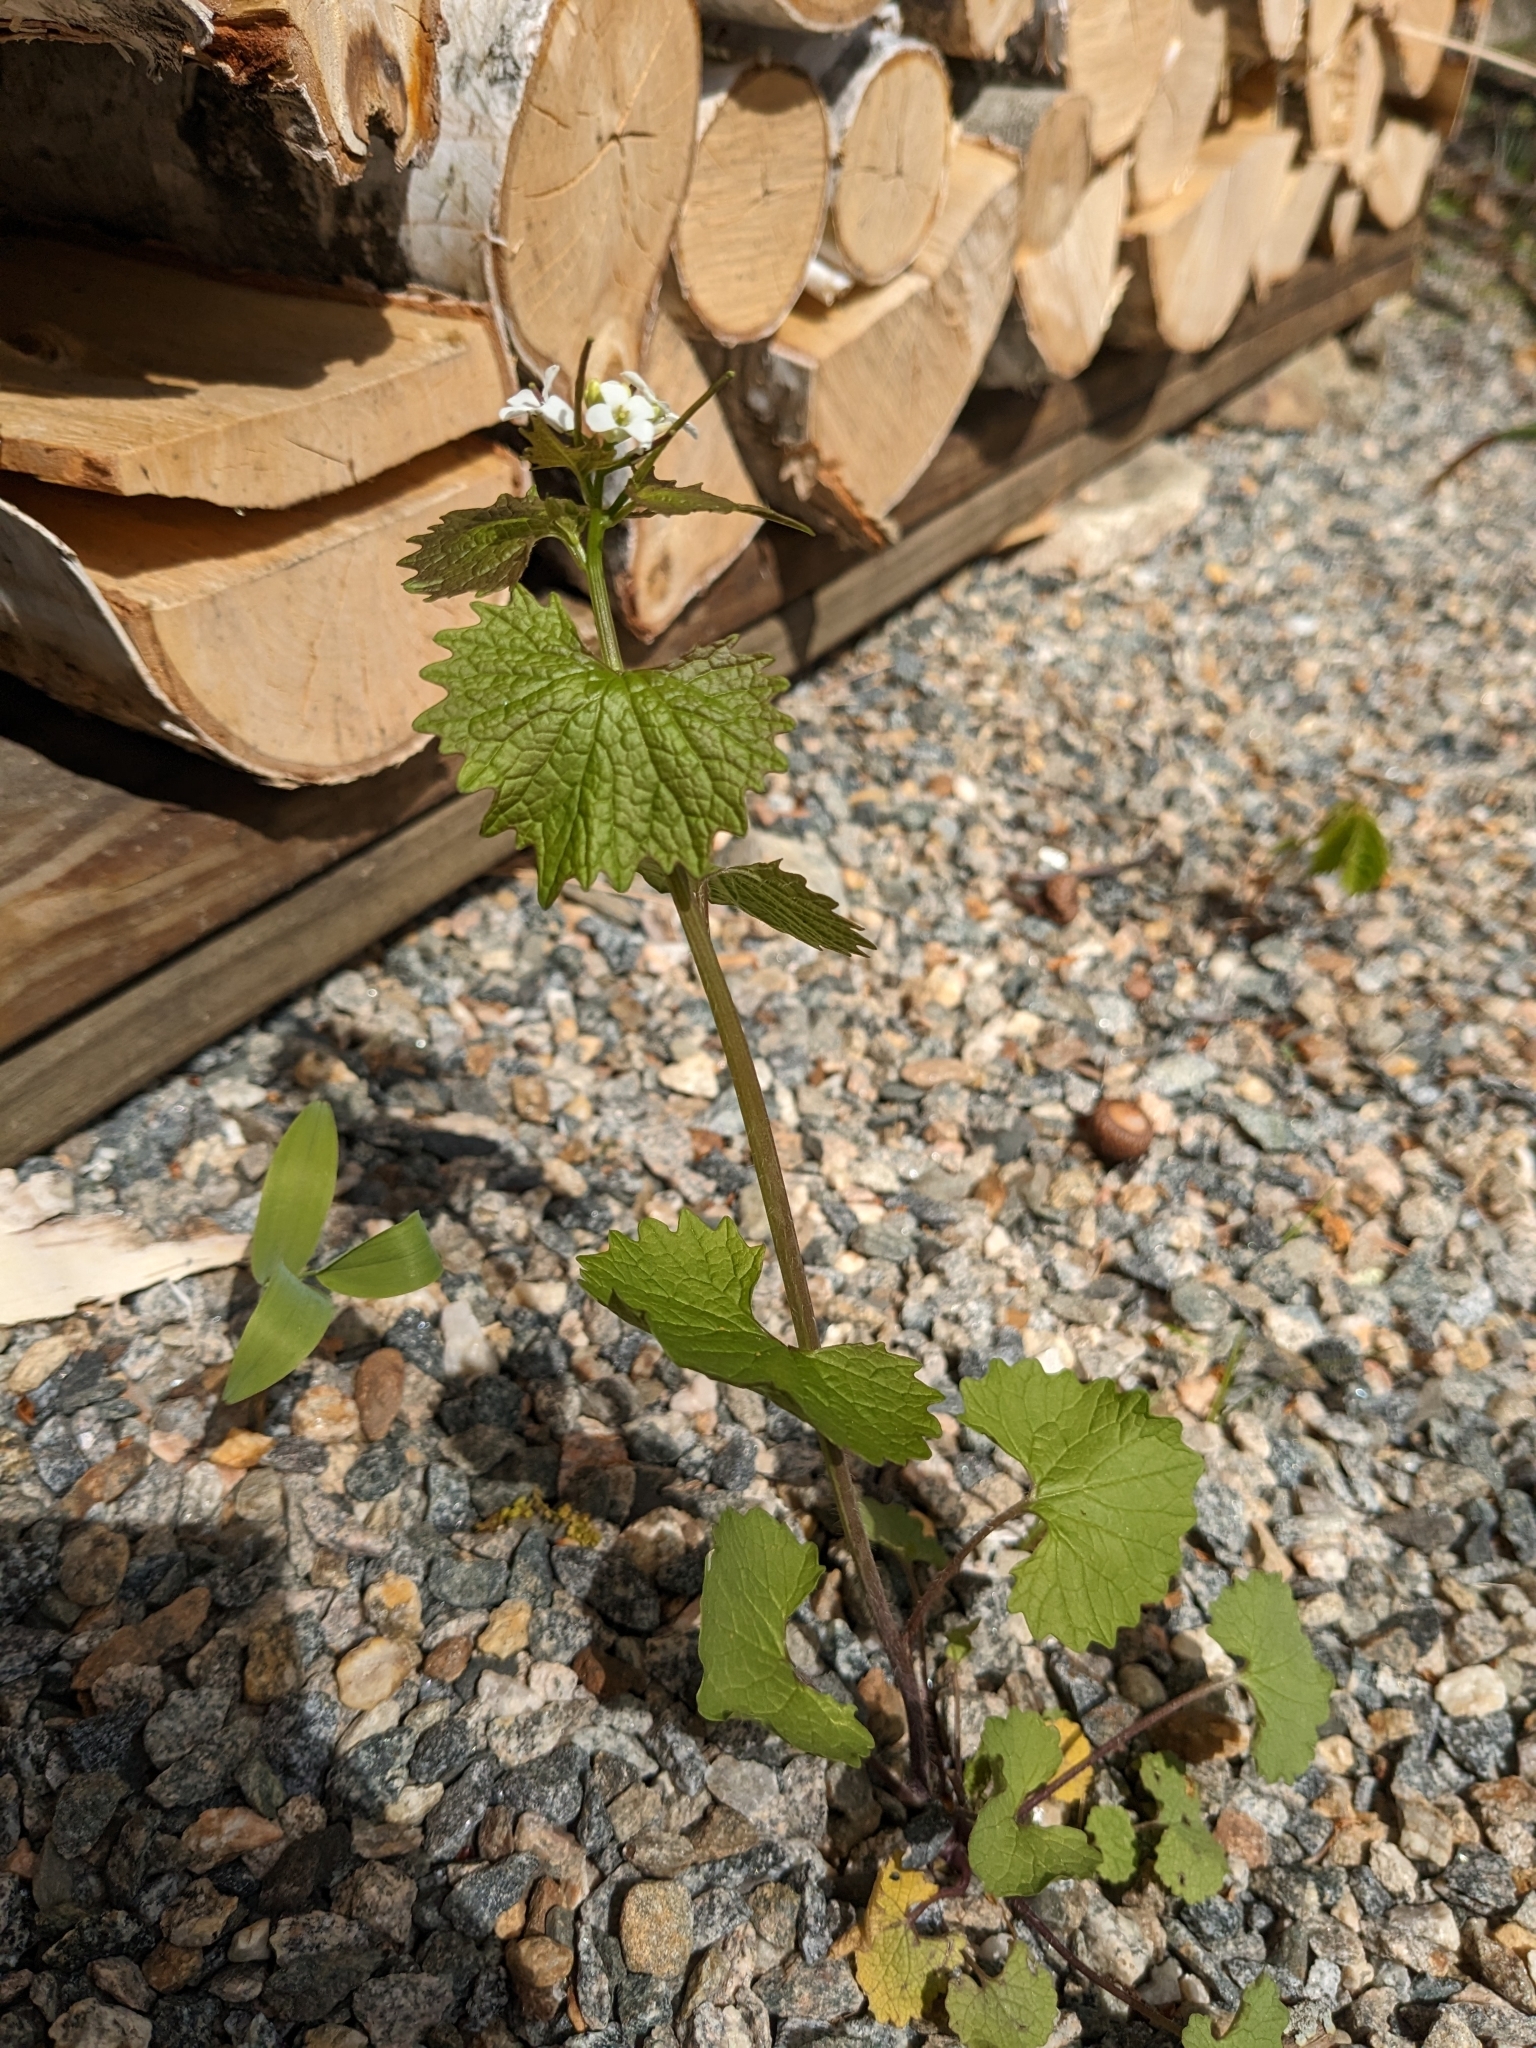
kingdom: Plantae
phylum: Tracheophyta
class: Magnoliopsida
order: Brassicales
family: Brassicaceae
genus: Alliaria
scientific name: Alliaria petiolata
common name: Garlic mustard
